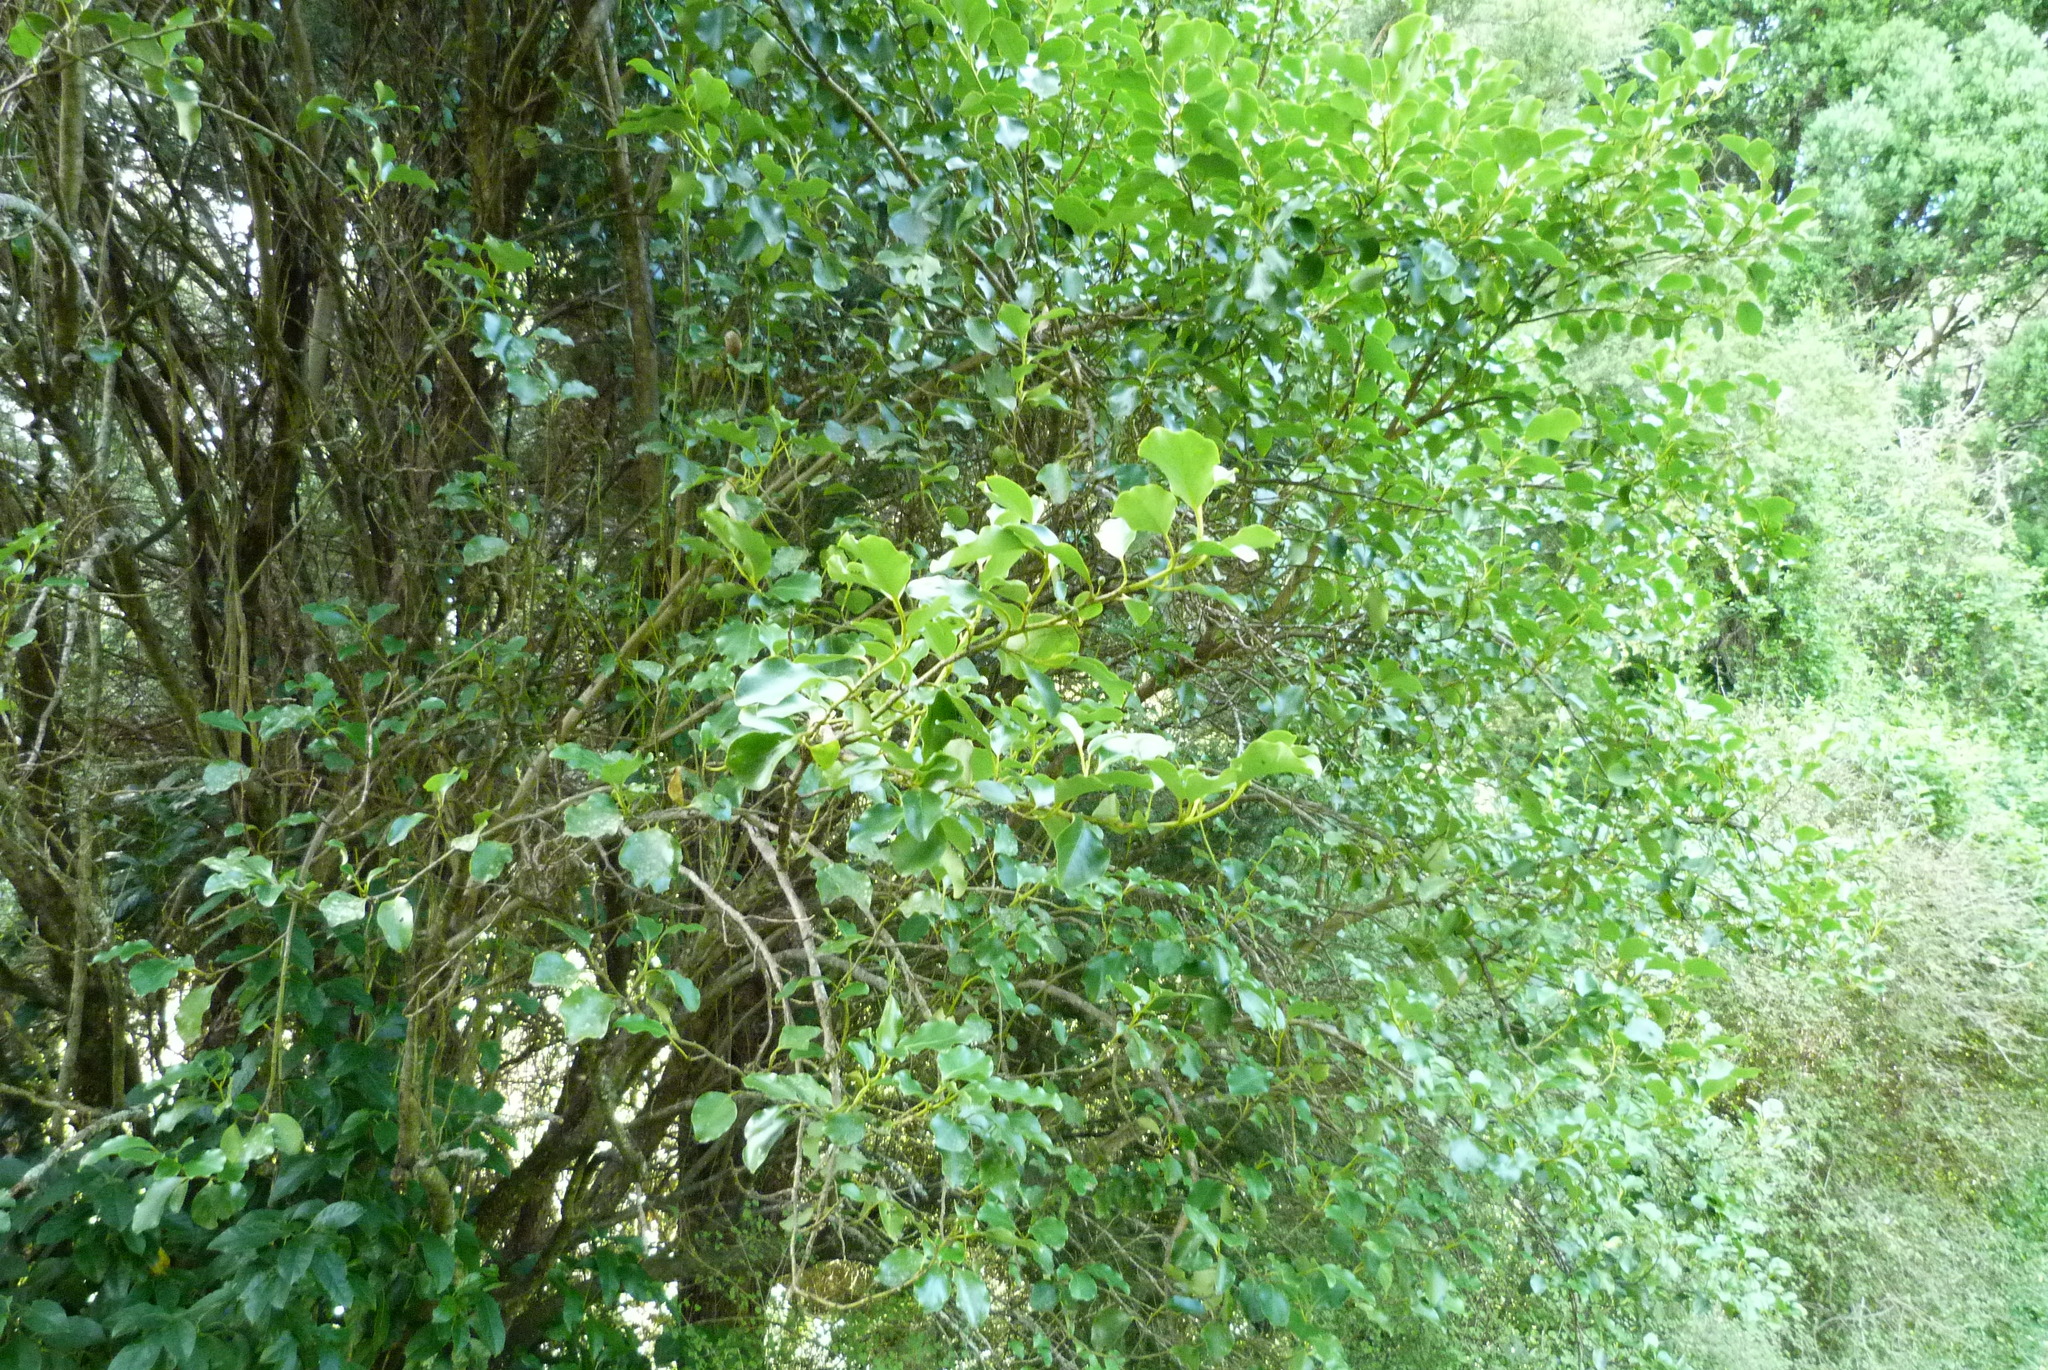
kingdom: Plantae
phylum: Tracheophyta
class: Magnoliopsida
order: Apiales
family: Griseliniaceae
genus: Griselinia
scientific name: Griselinia littoralis
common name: New zealand broadleaf
